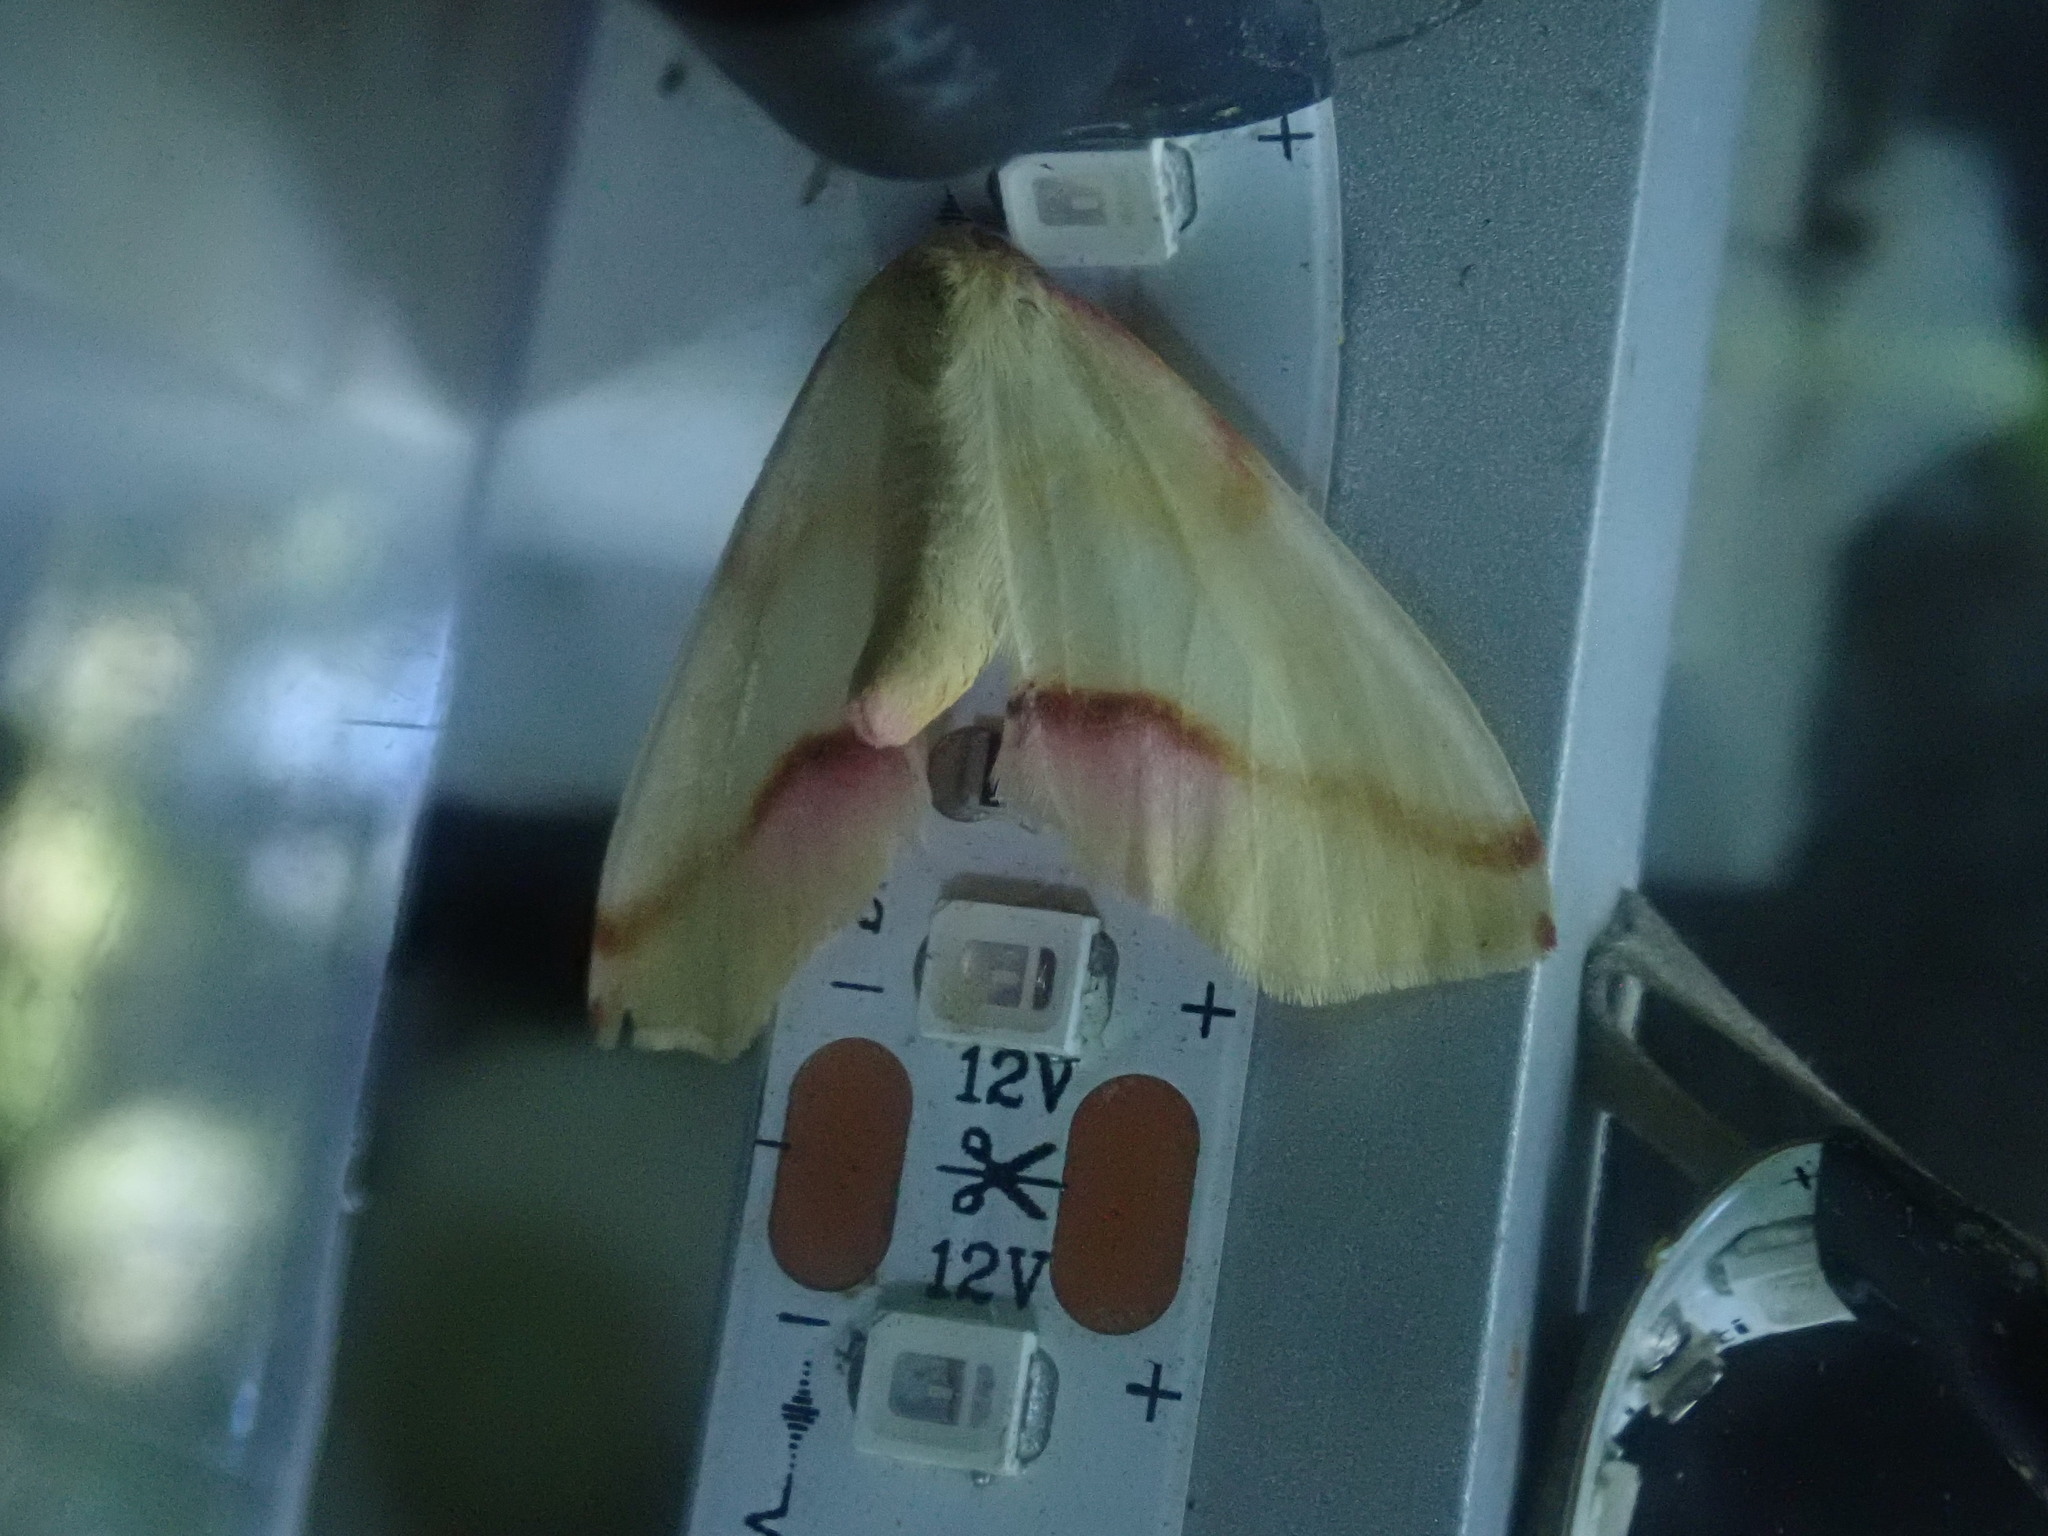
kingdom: Animalia
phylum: Arthropoda
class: Insecta
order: Lepidoptera
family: Geometridae
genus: Plagodis
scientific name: Plagodis serinaria
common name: Lemon plagodis
